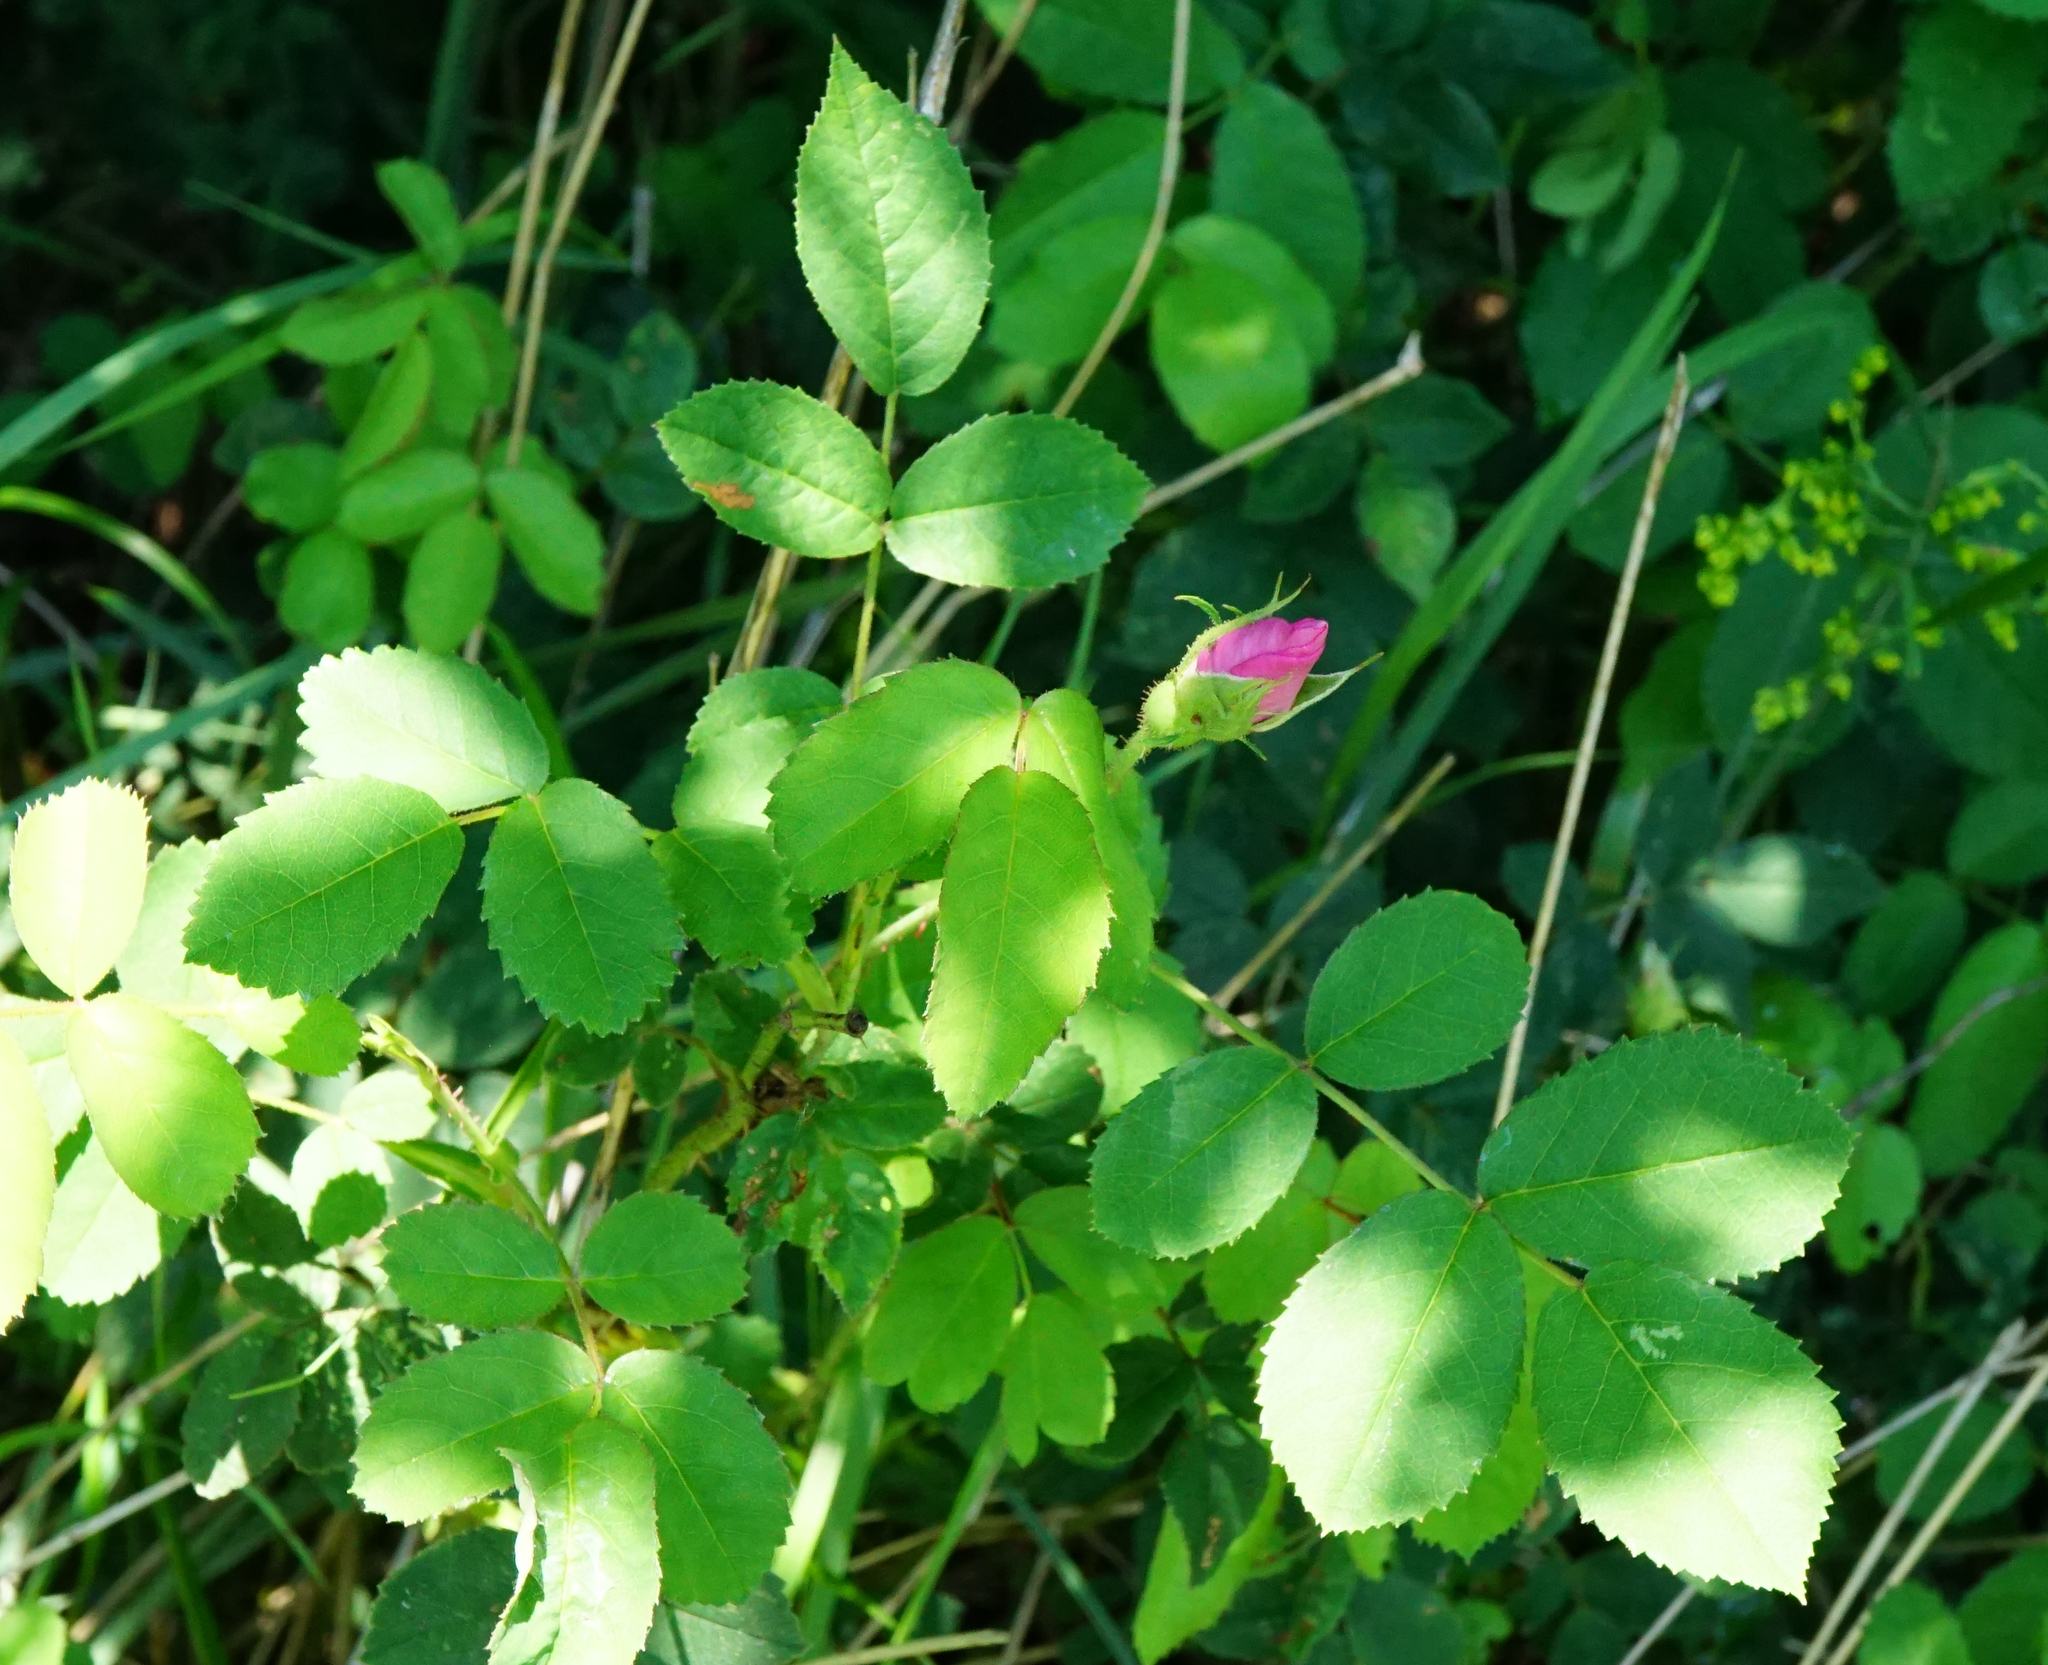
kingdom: Plantae
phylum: Tracheophyta
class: Magnoliopsida
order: Rosales
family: Rosaceae
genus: Rosa
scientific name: Rosa gallica
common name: French rose
